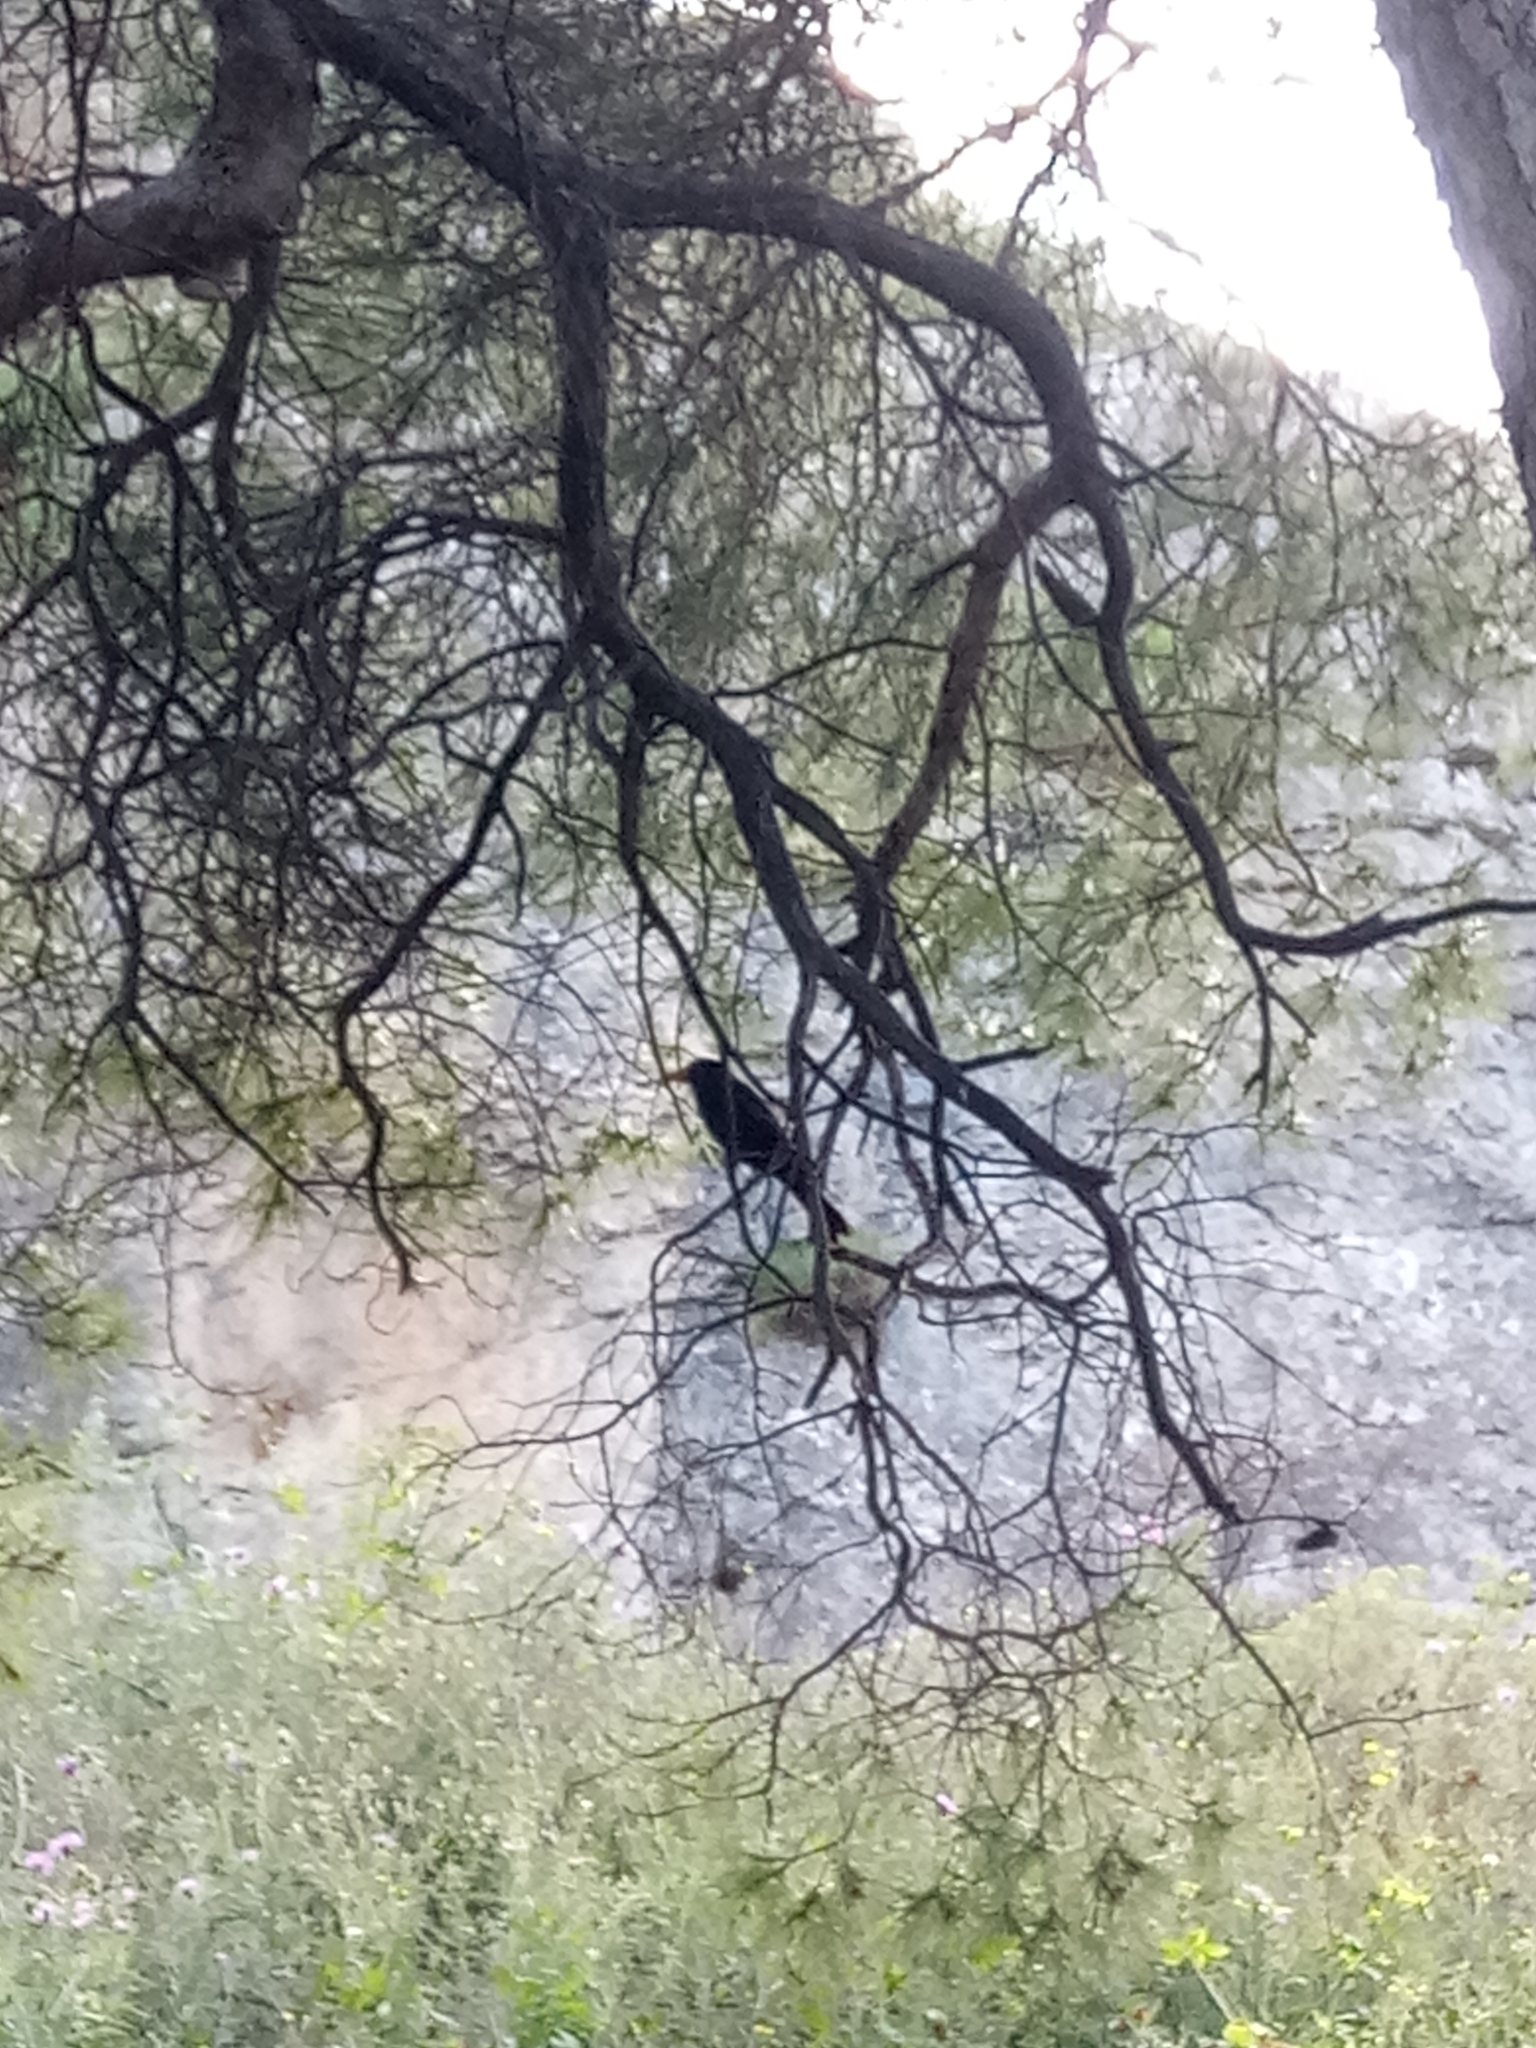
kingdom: Animalia
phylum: Chordata
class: Aves
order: Passeriformes
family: Turdidae
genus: Turdus
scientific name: Turdus merula
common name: Common blackbird
